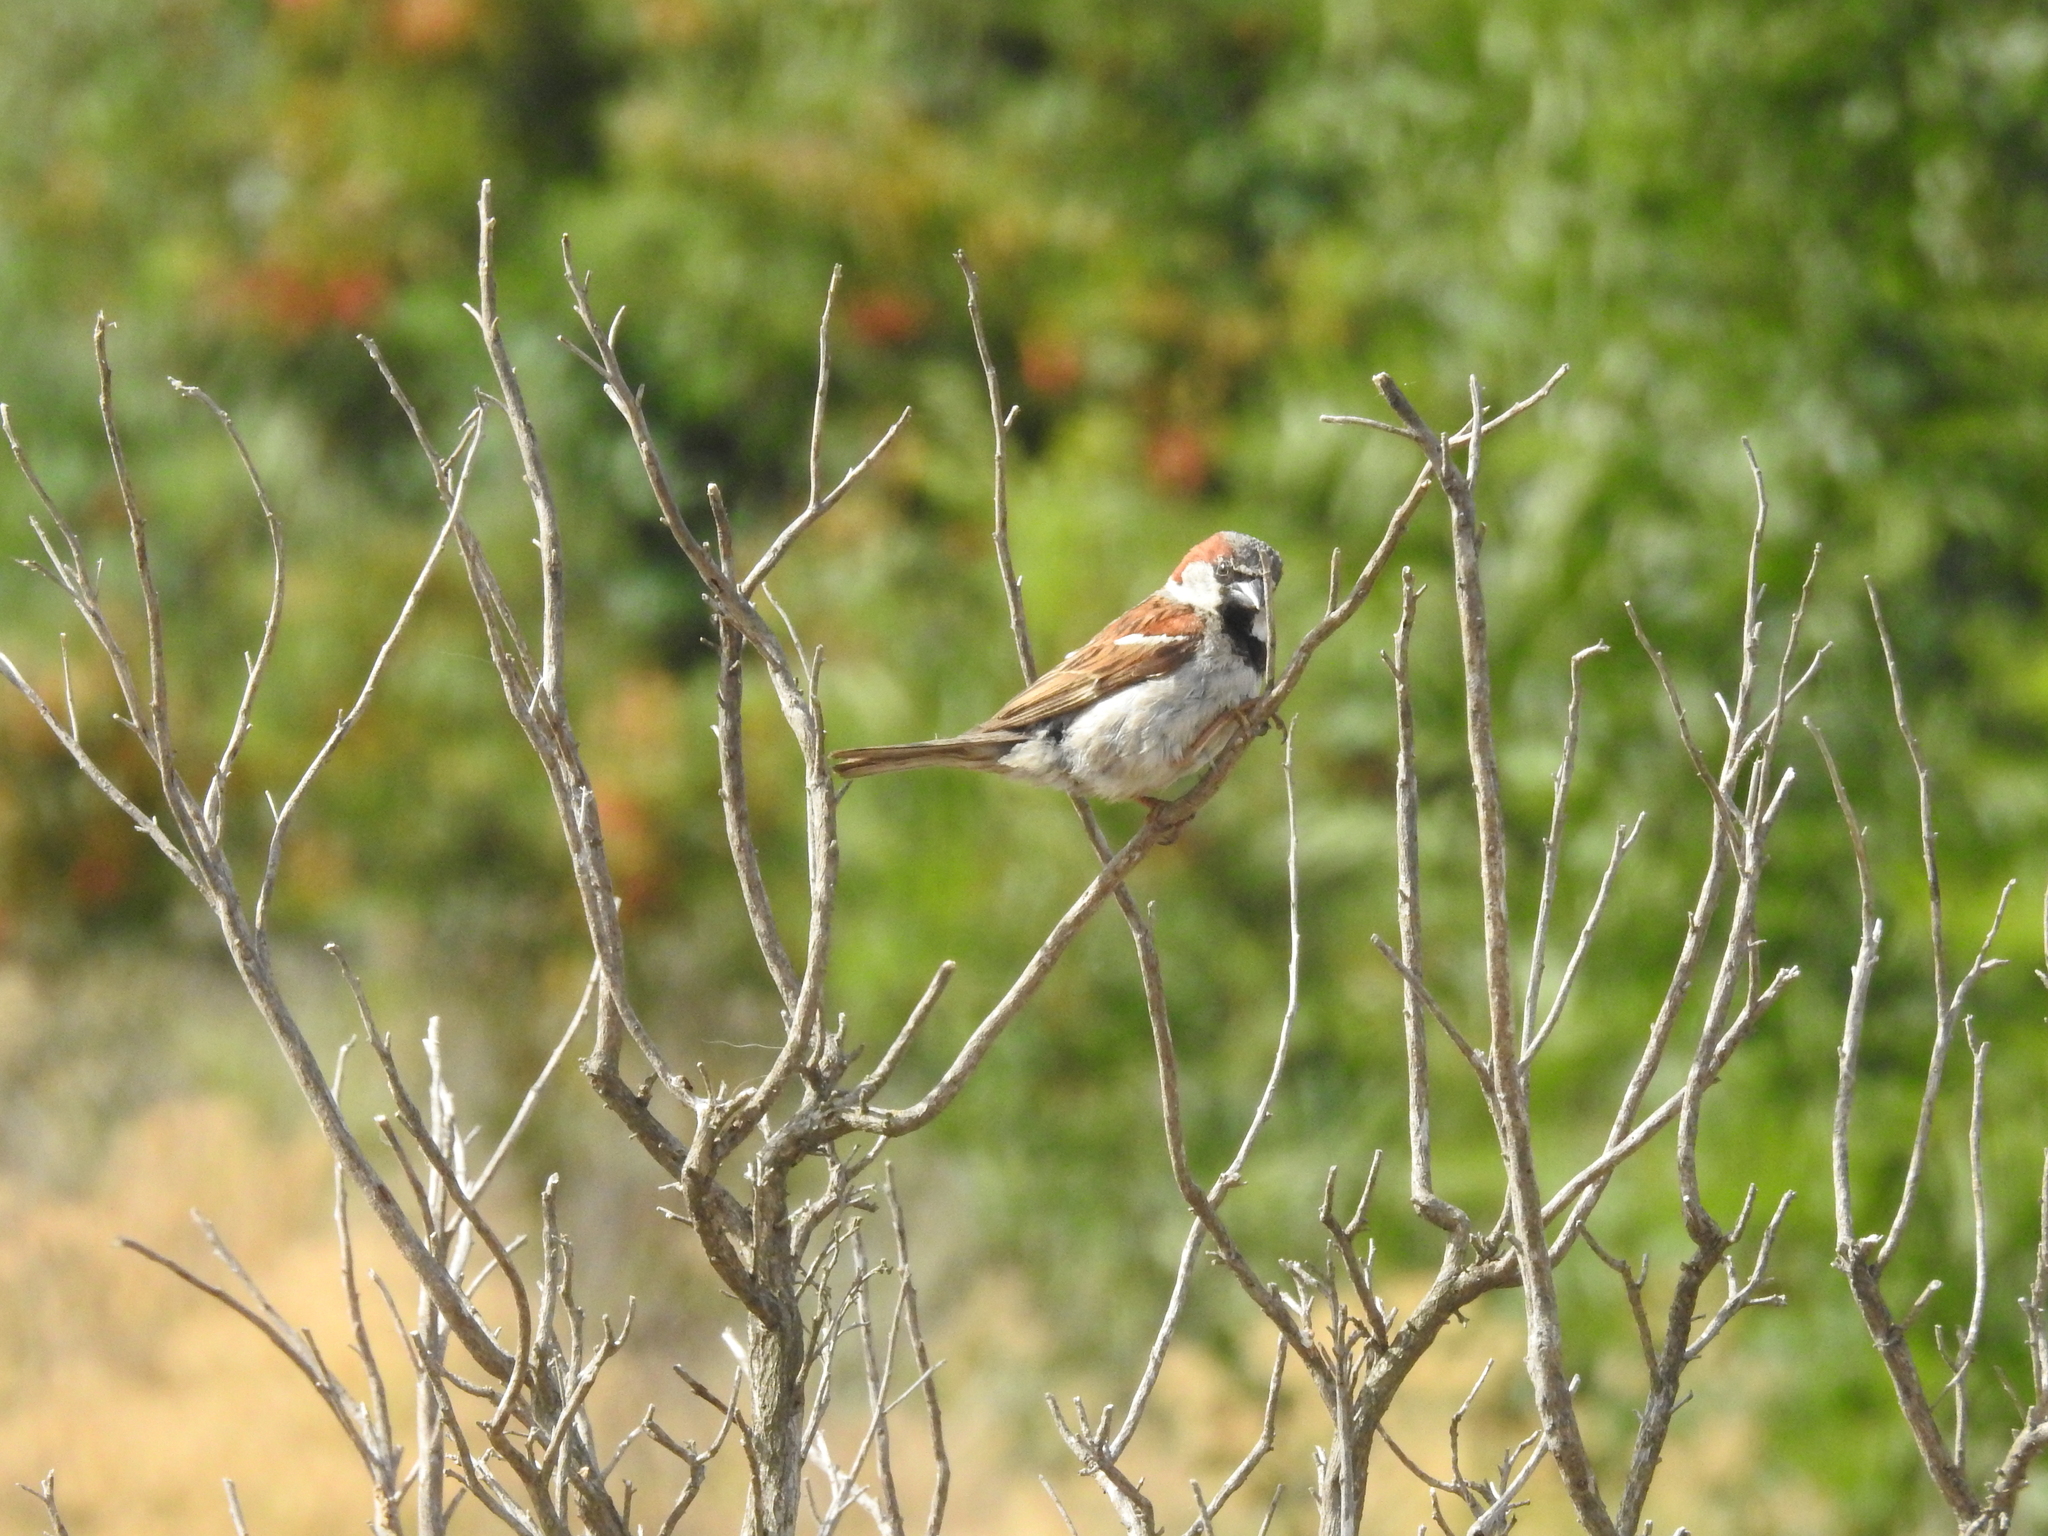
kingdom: Animalia
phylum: Chordata
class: Aves
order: Passeriformes
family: Passeridae
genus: Passer
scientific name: Passer domesticus
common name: House sparrow
